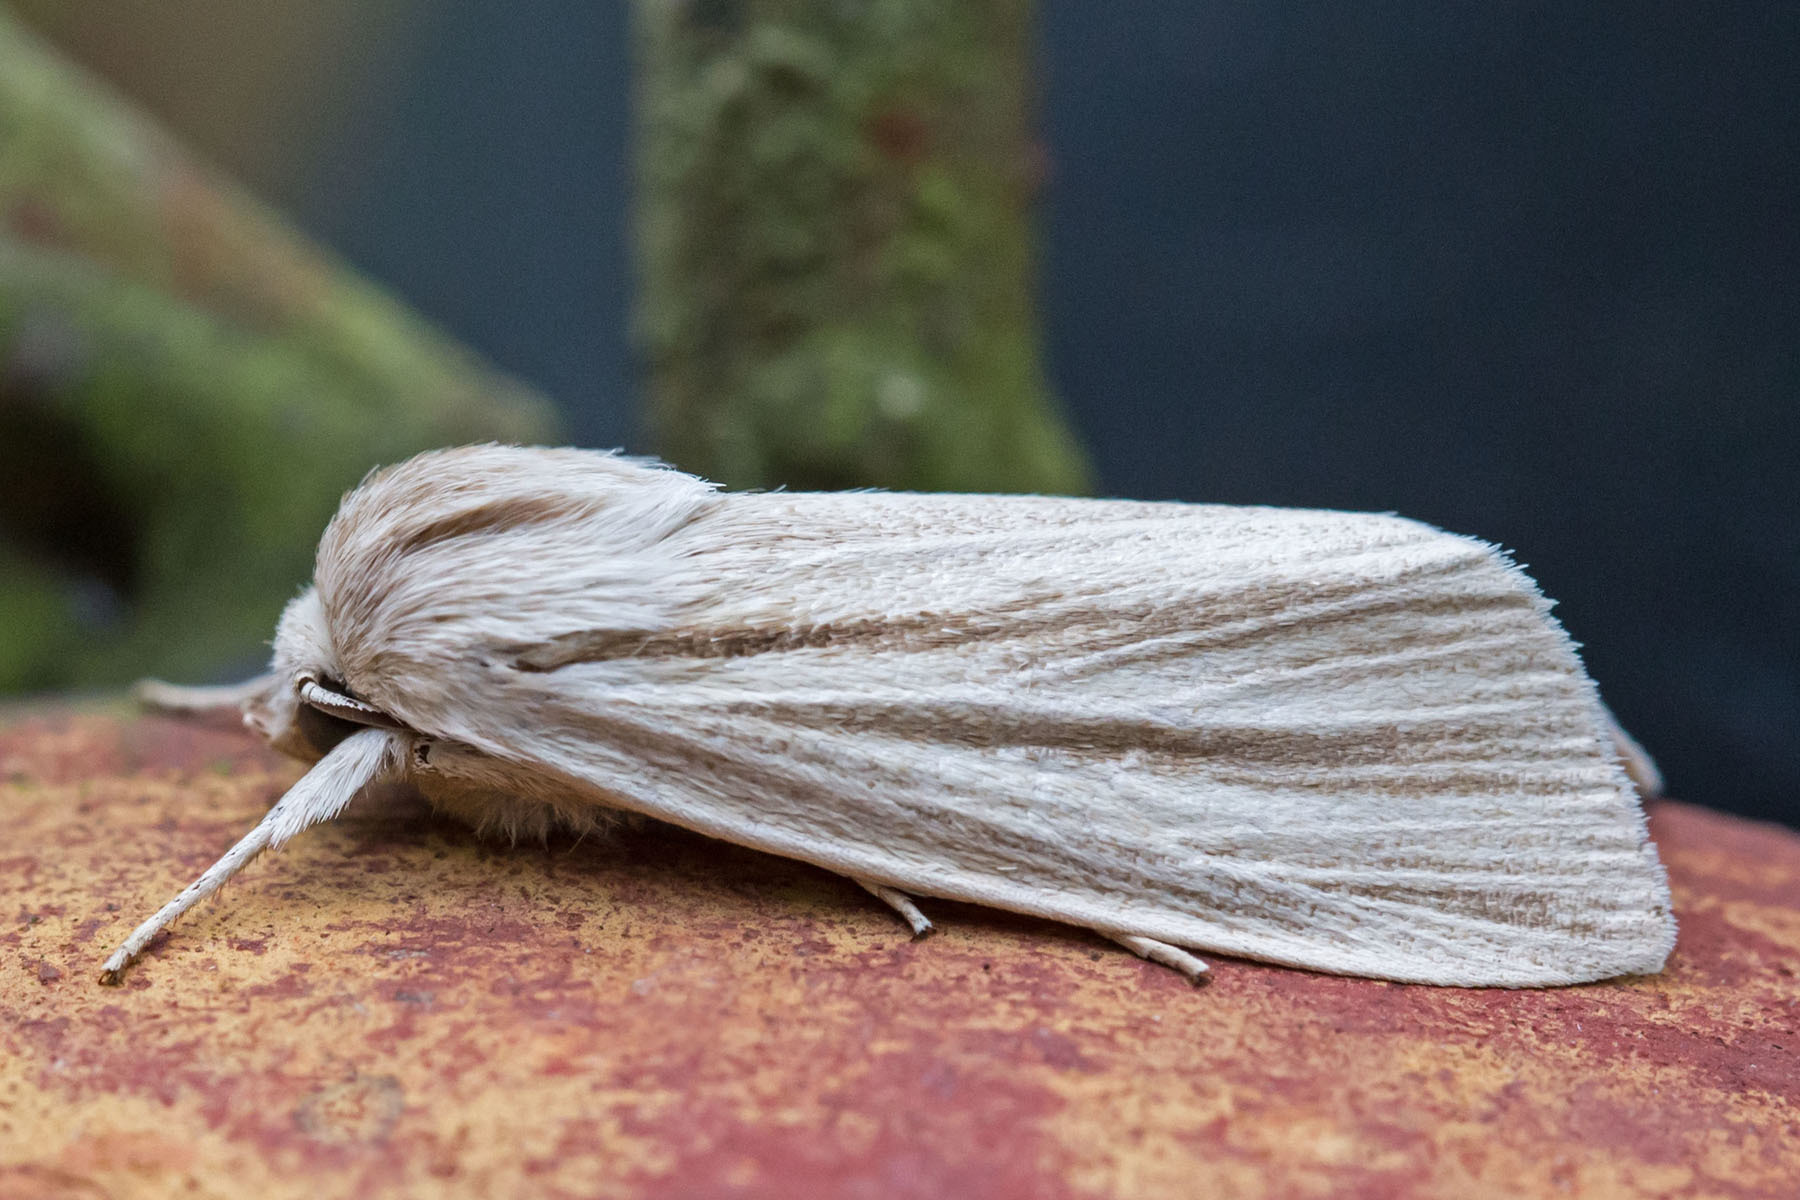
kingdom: Animalia
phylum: Arthropoda
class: Insecta
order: Lepidoptera
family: Noctuidae
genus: Acronicta
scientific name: Acronicta insularis
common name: Henry's marsh moth
